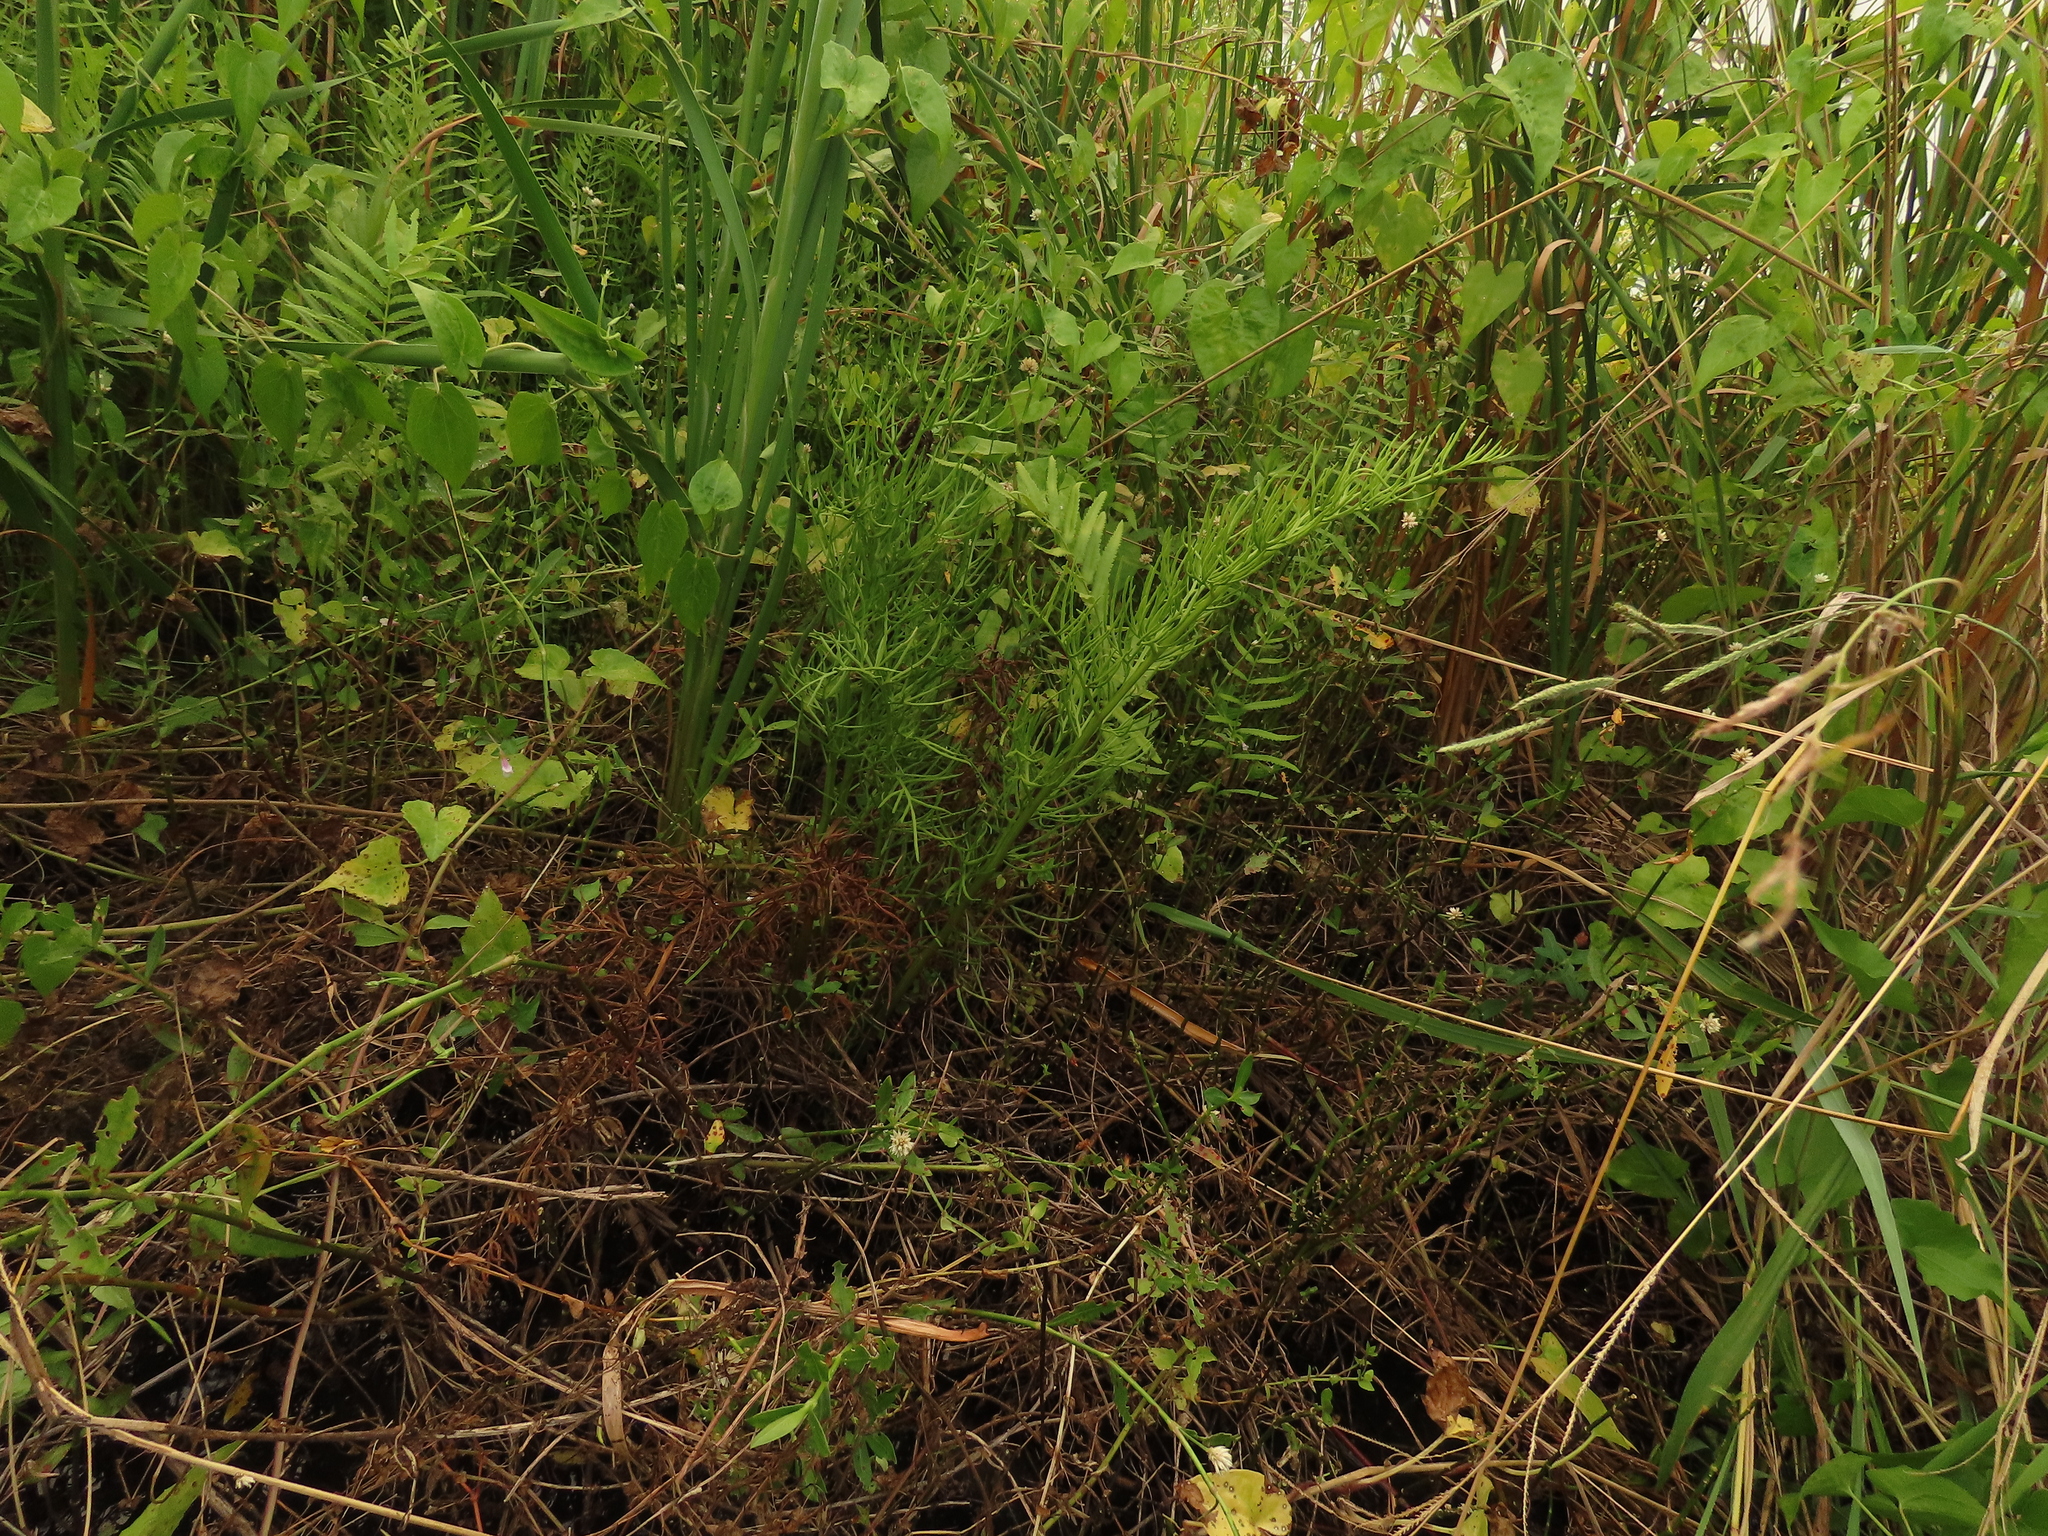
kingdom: Plantae
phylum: Tracheophyta
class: Polypodiopsida
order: Polypodiales
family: Pteridaceae
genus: Ceratopteris
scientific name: Ceratopteris thalictroides
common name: Water fern
